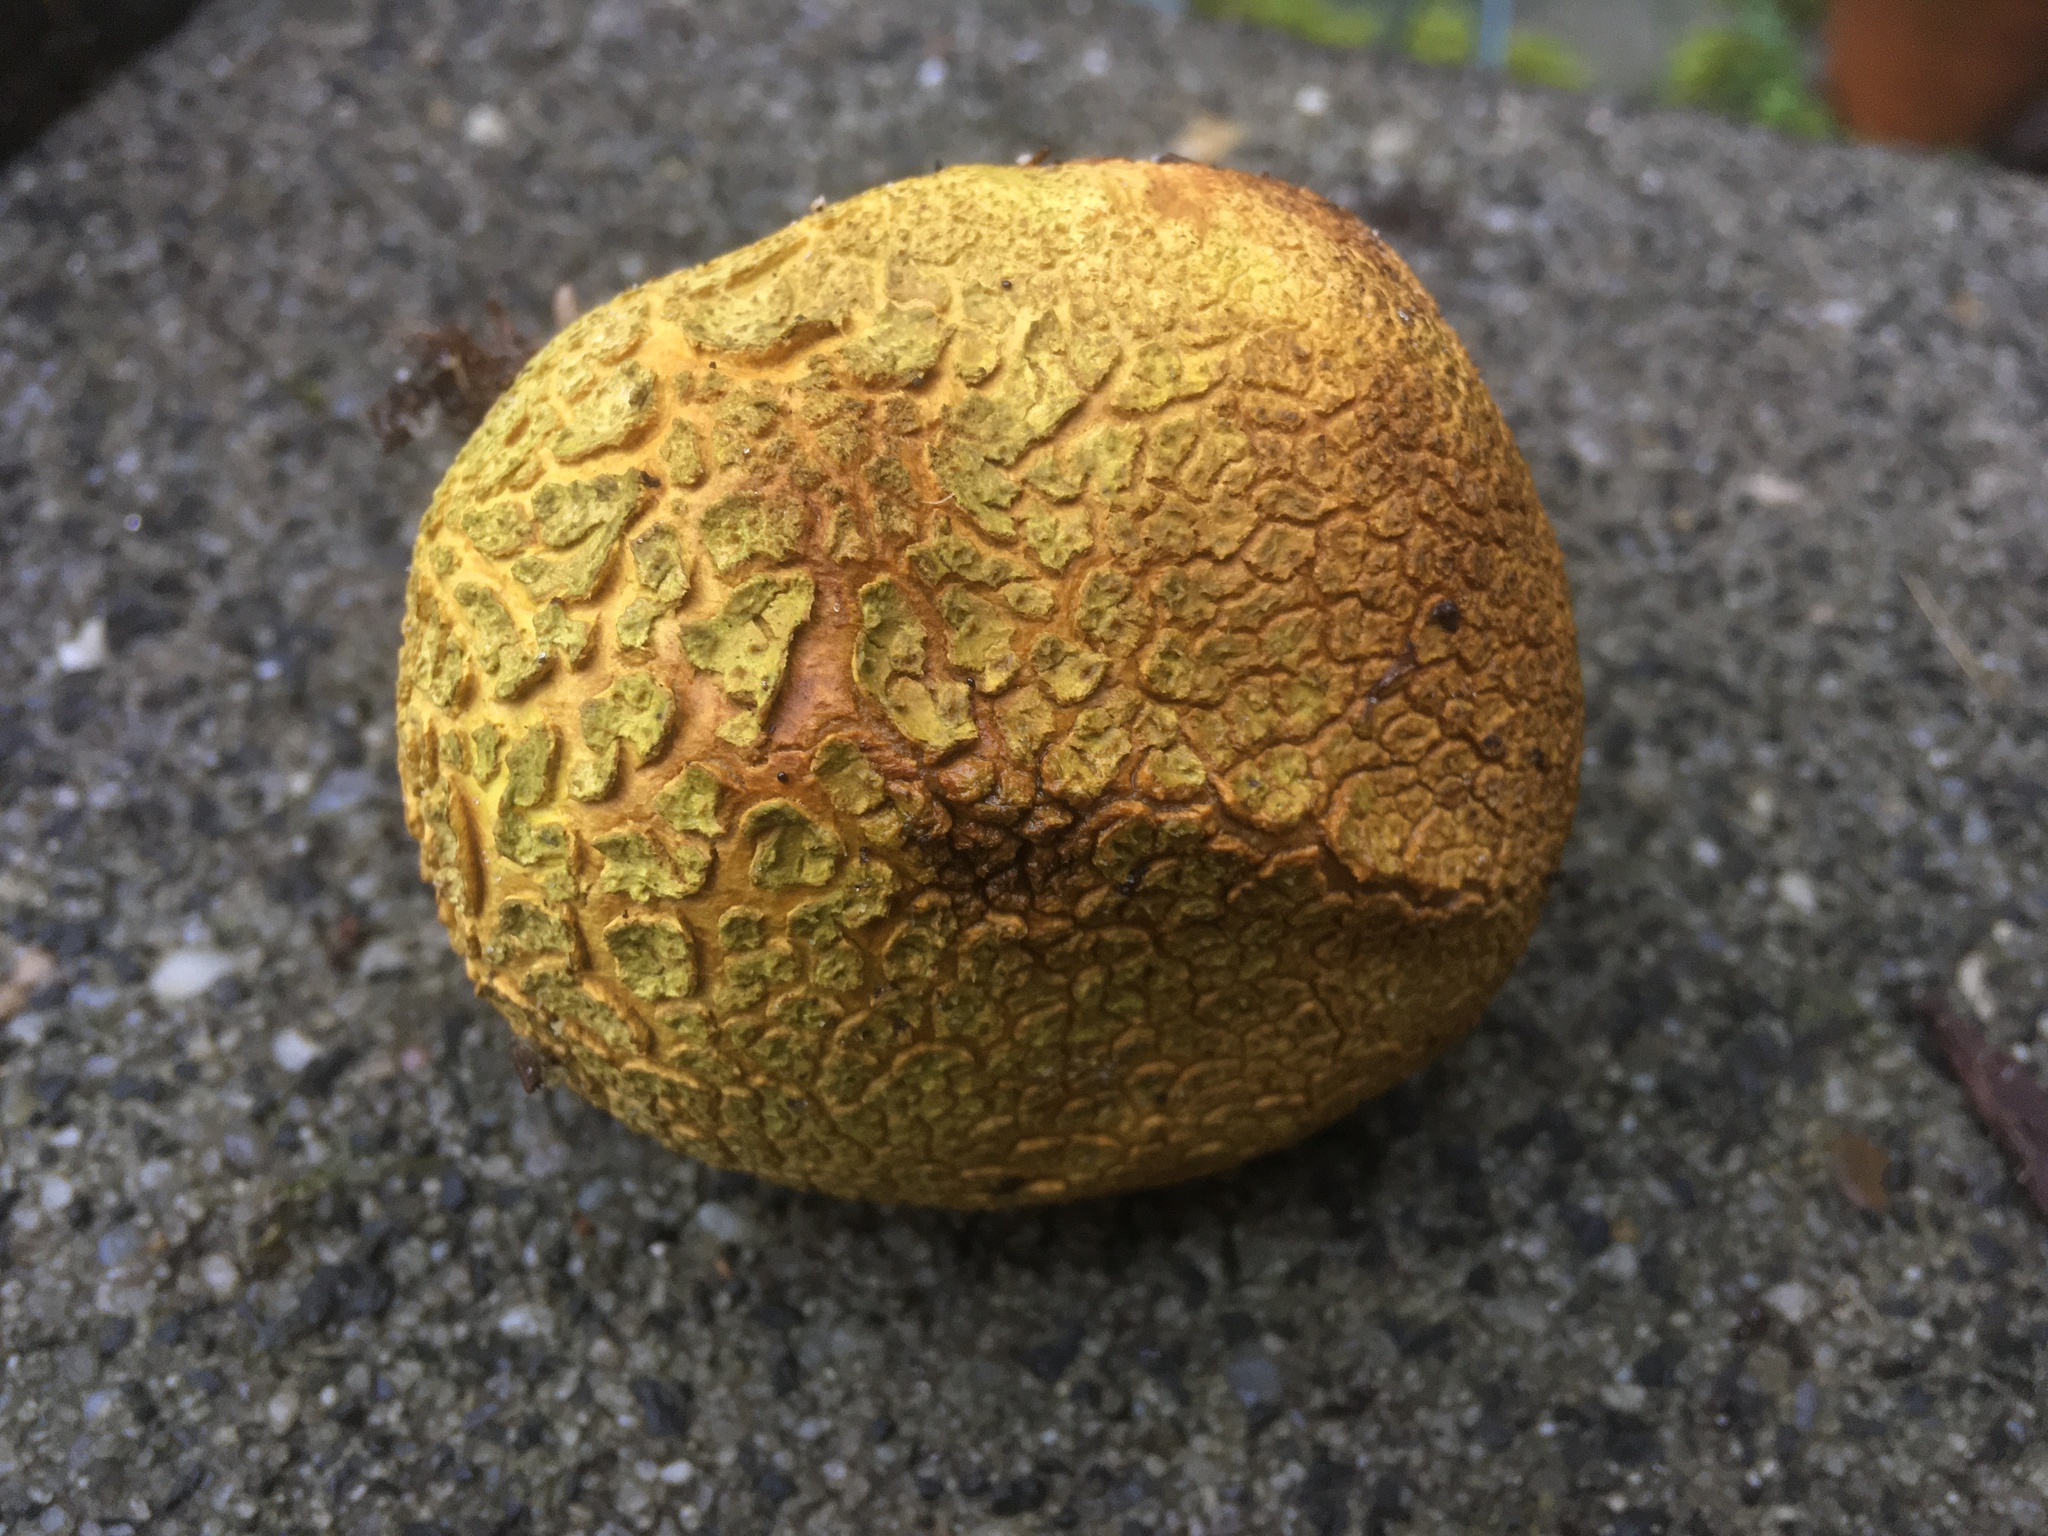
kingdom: Fungi
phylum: Basidiomycota
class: Agaricomycetes
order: Boletales
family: Sclerodermataceae
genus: Scleroderma
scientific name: Scleroderma citrinum
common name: Common earthball
